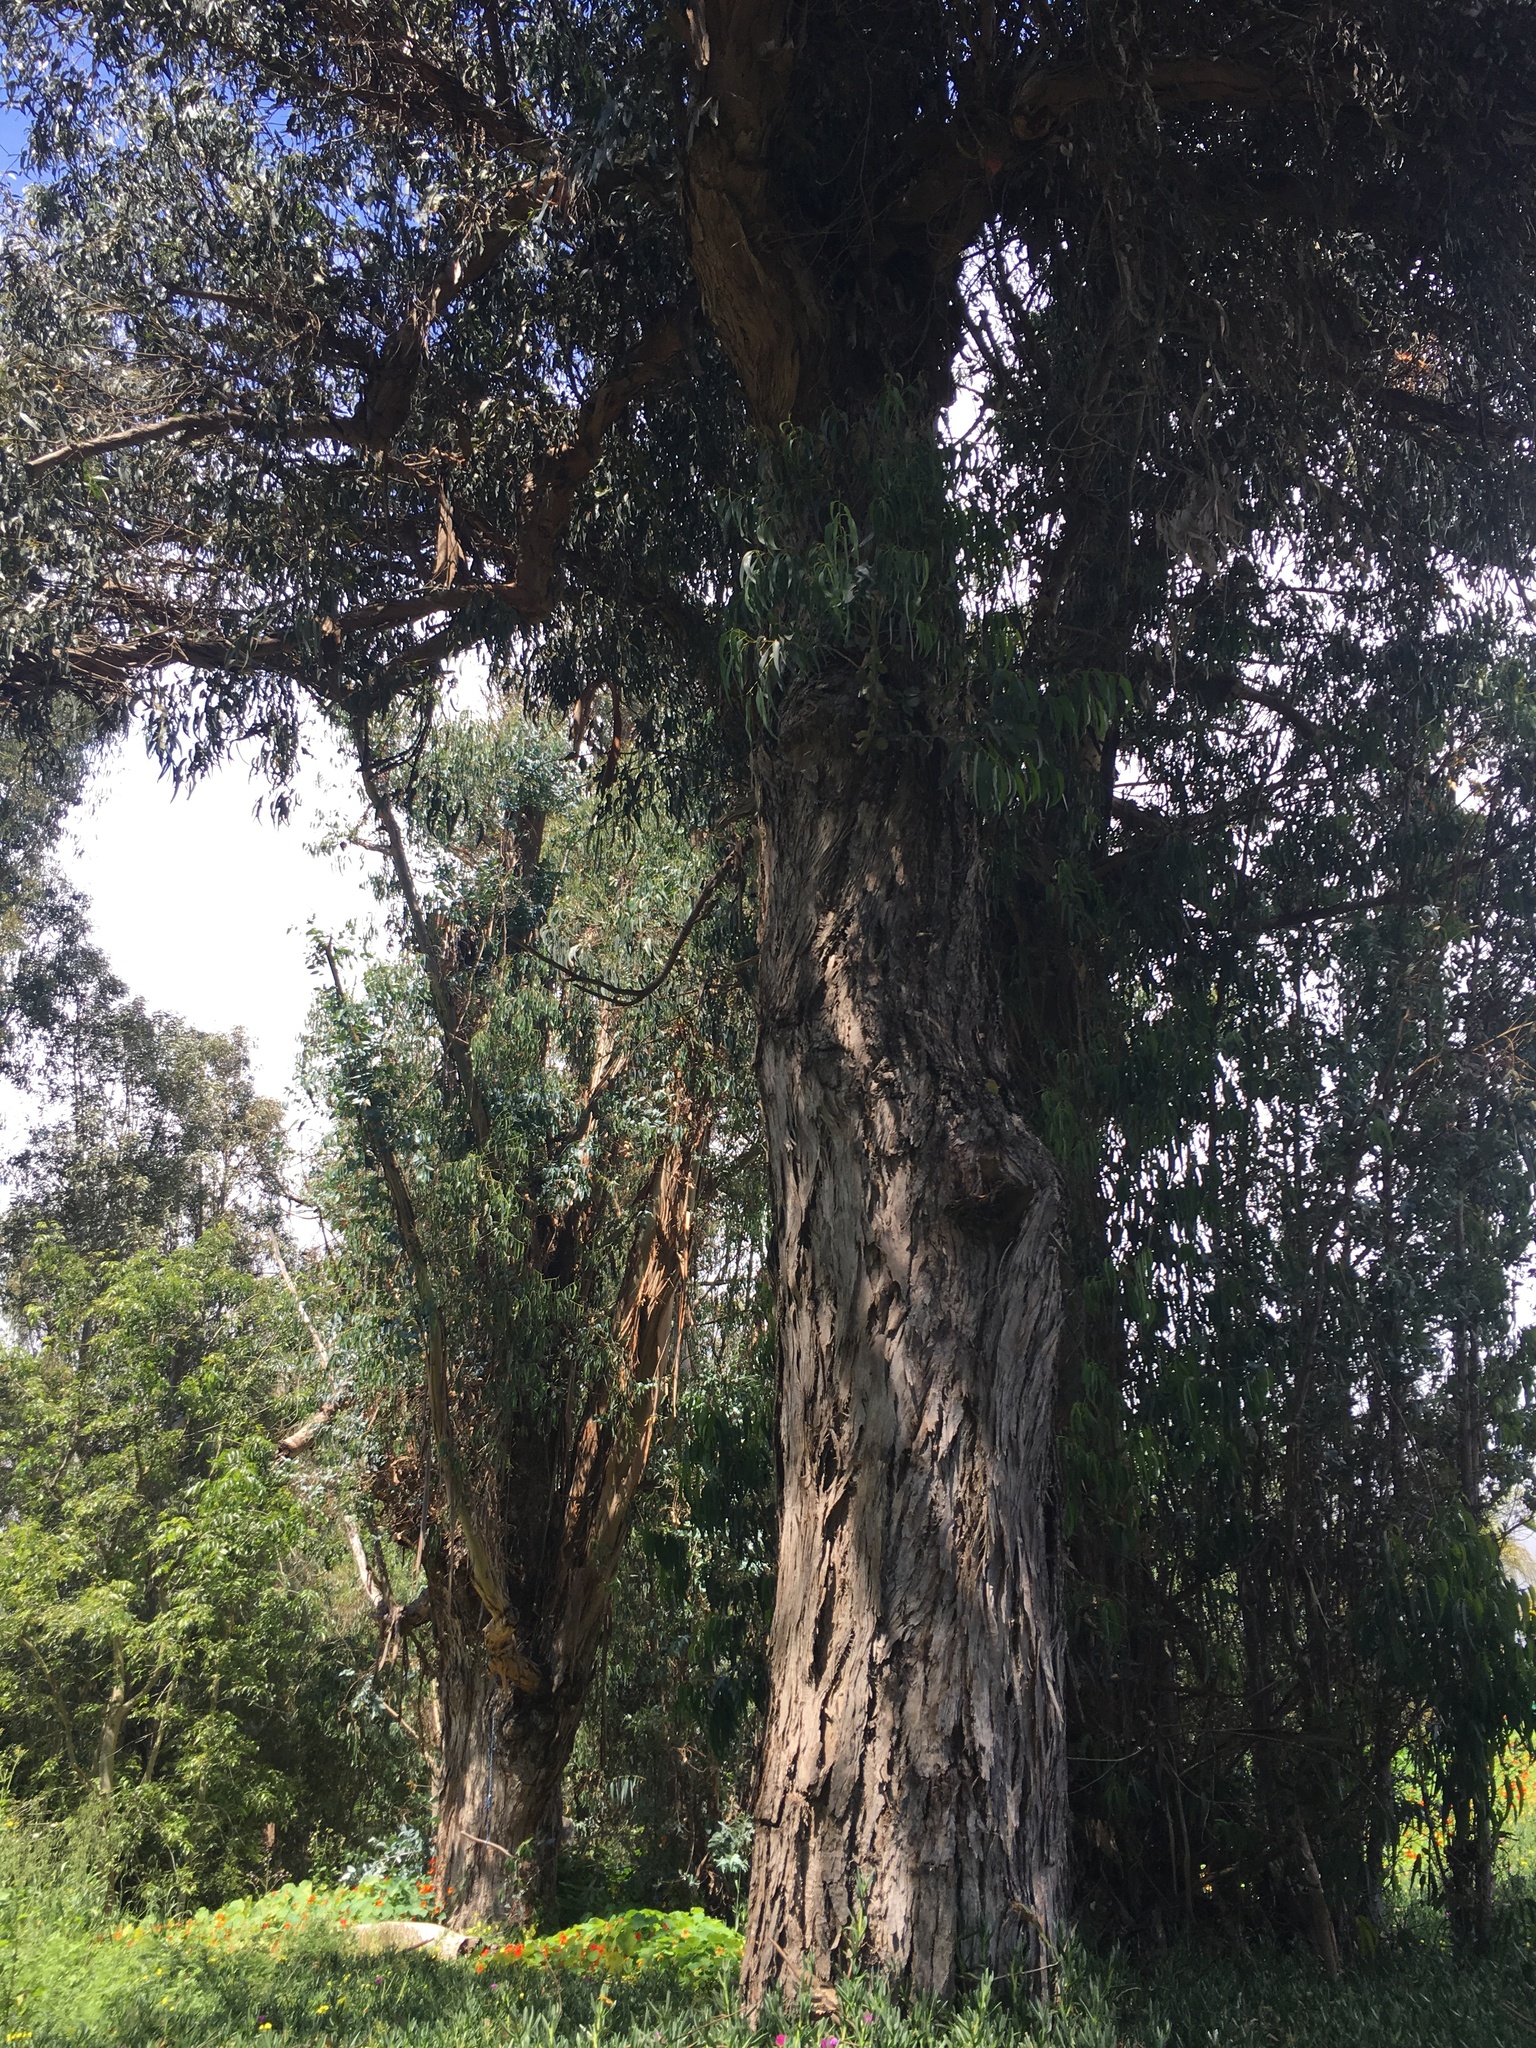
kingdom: Plantae
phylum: Tracheophyta
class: Magnoliopsida
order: Brassicales
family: Tropaeolaceae
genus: Tropaeolum
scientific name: Tropaeolum majus
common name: Nasturtium
